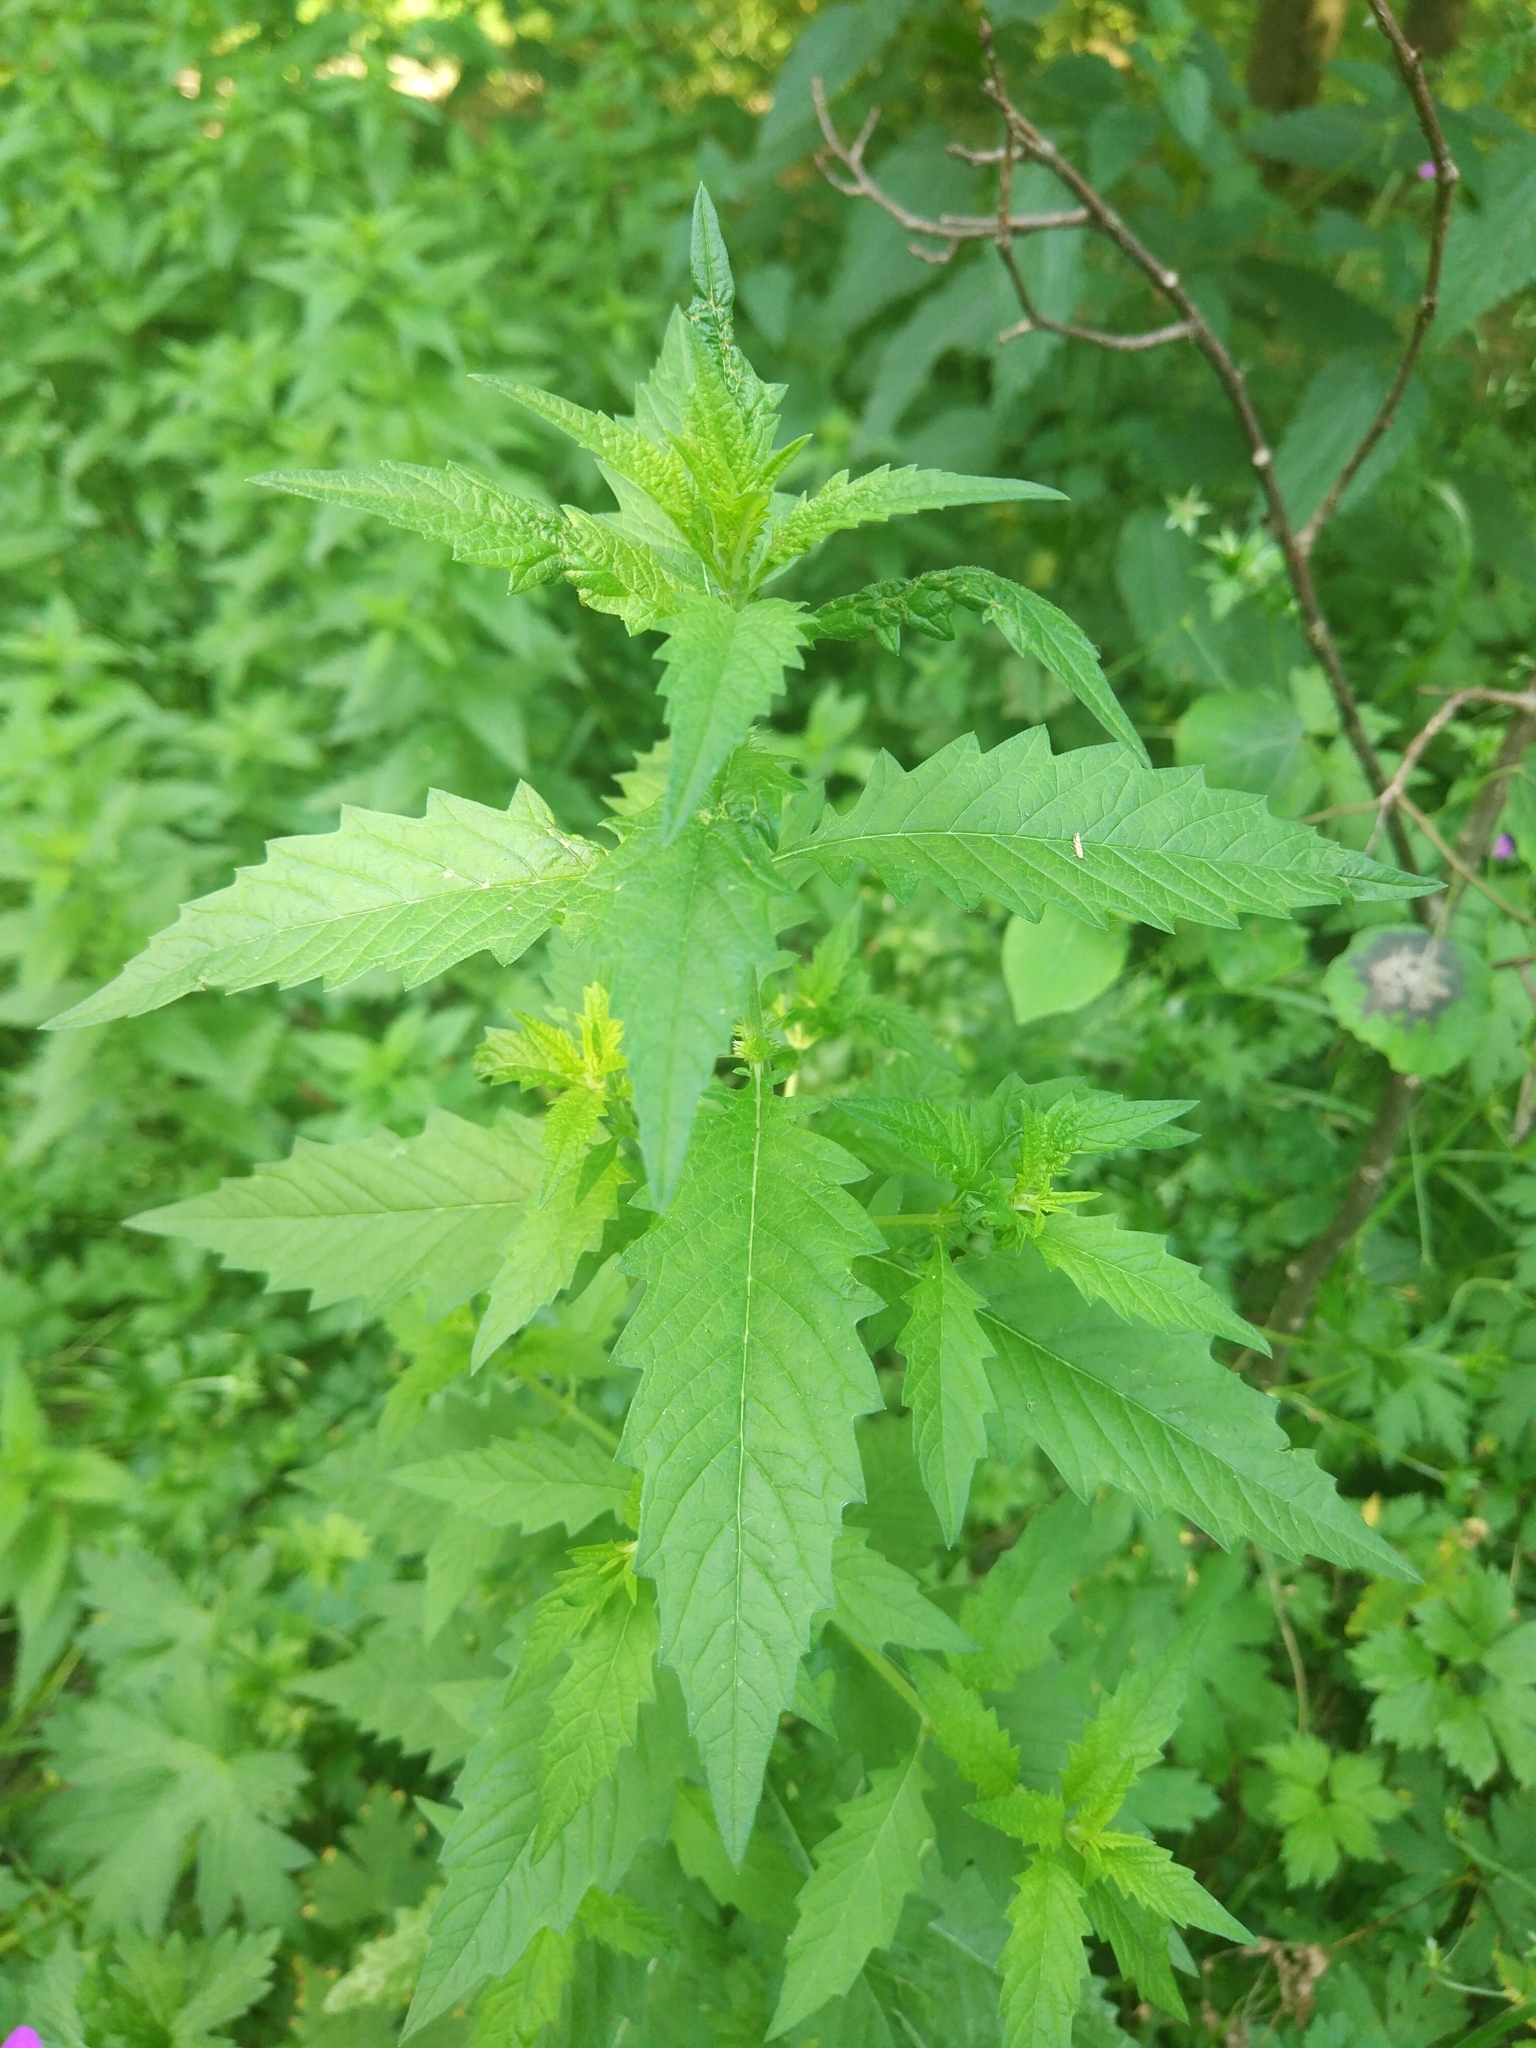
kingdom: Plantae
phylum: Tracheophyta
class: Magnoliopsida
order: Lamiales
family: Lamiaceae
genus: Lycopus
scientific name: Lycopus europaeus
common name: European bugleweed
